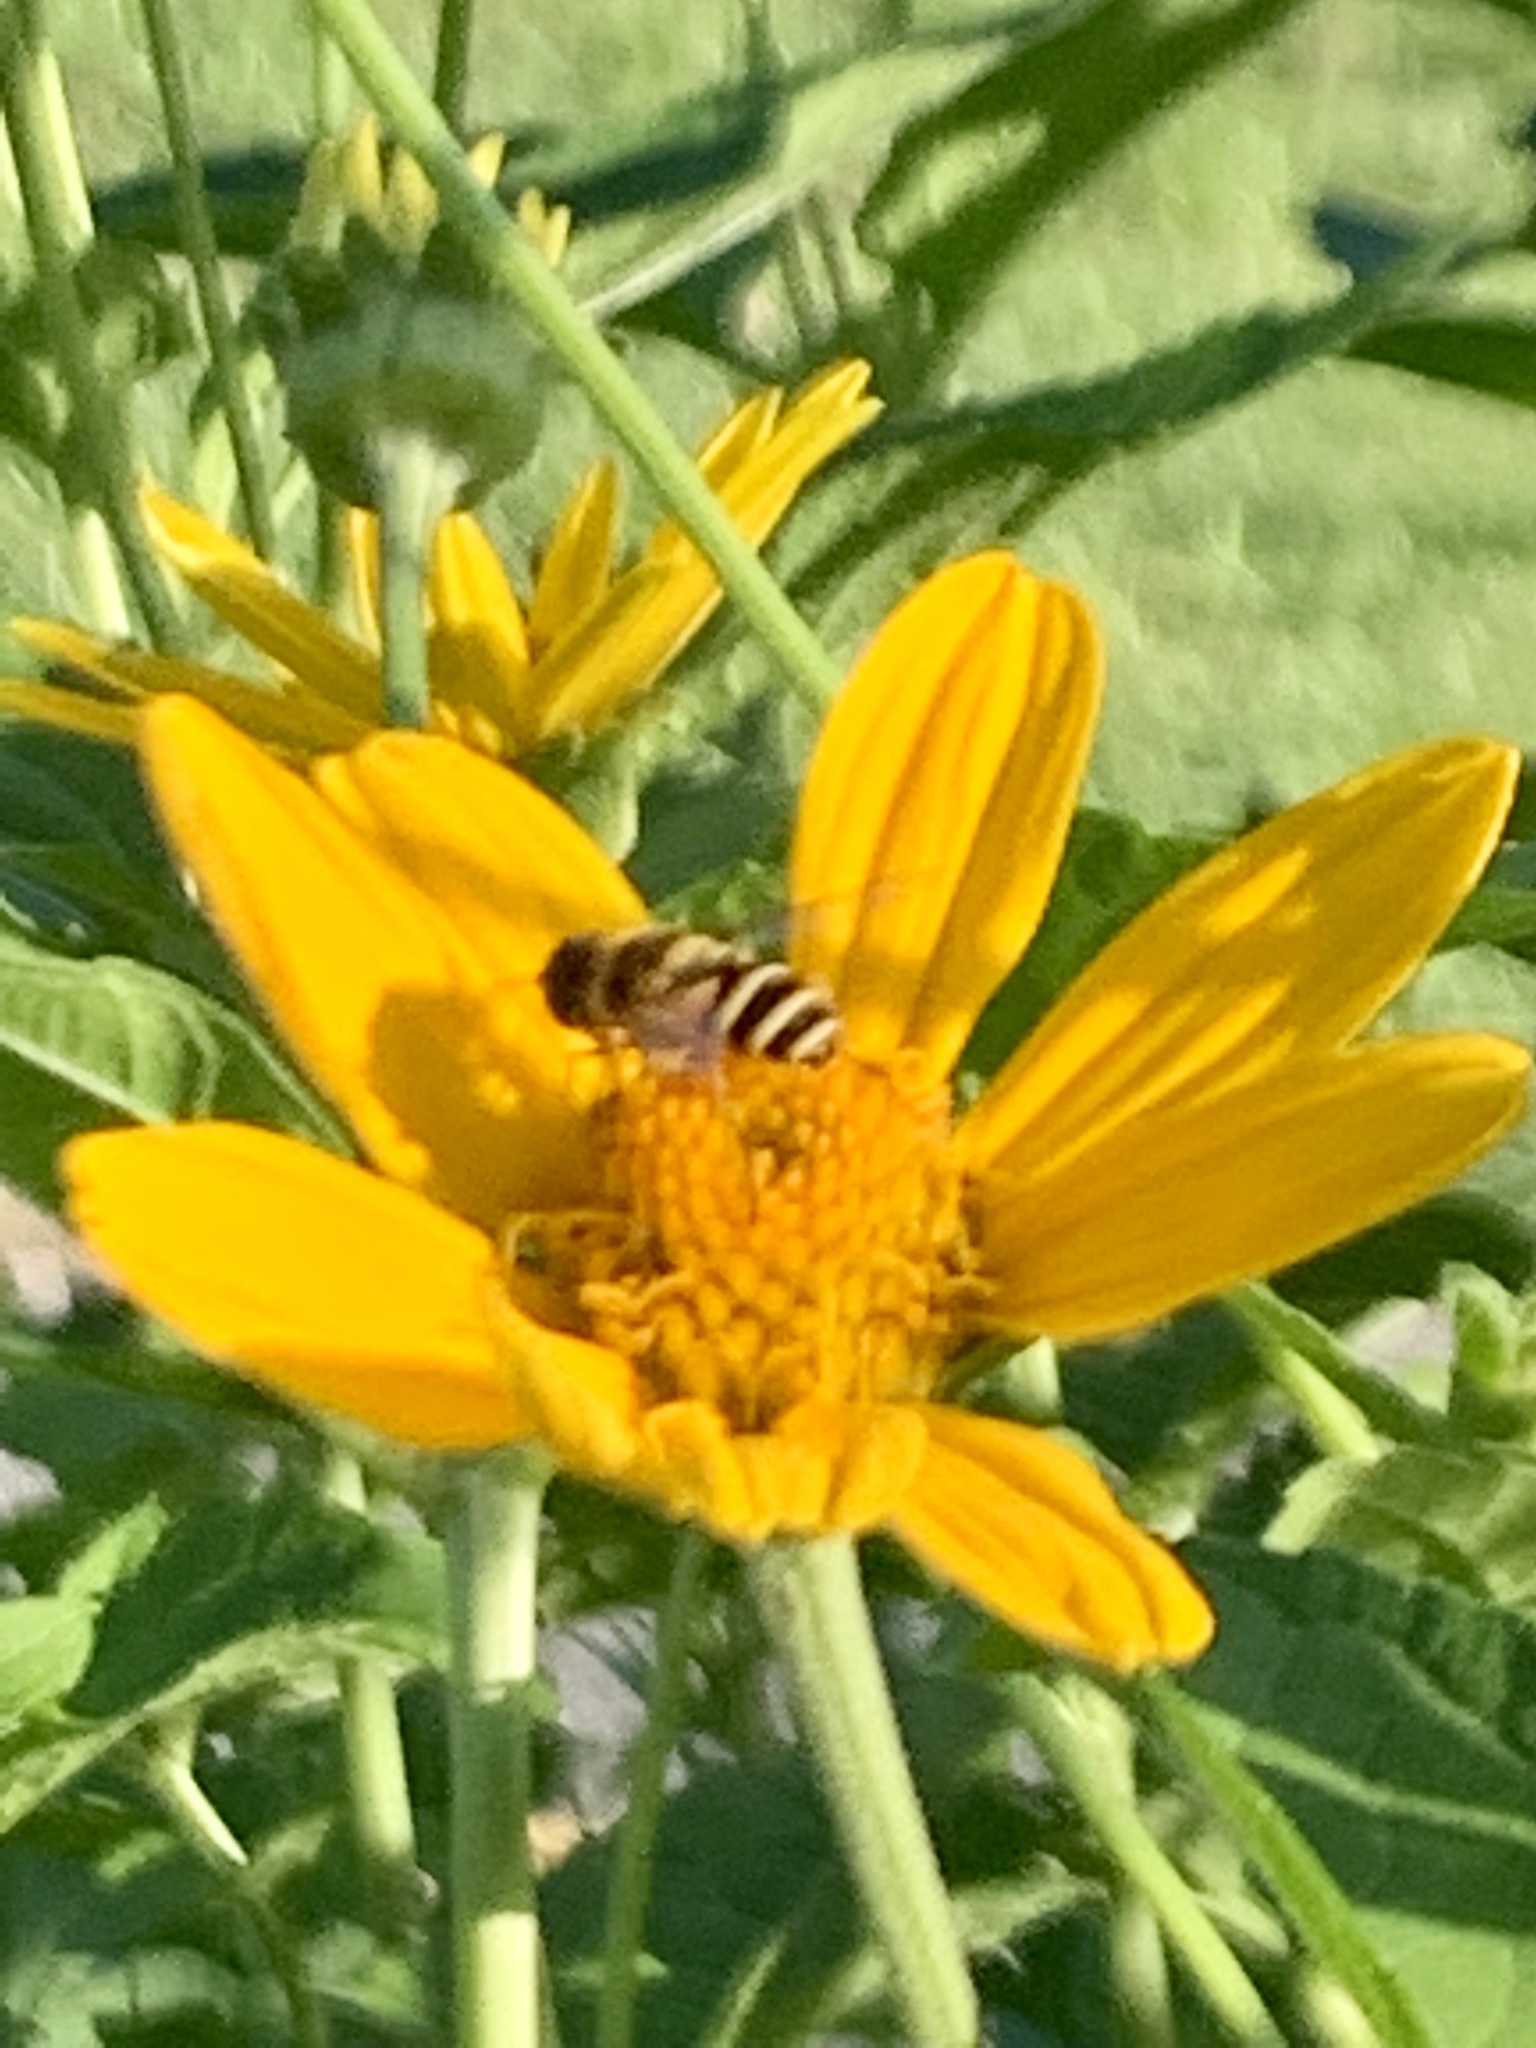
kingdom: Animalia
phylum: Arthropoda
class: Insecta
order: Diptera
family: Syrphidae
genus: Eristalis
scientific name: Eristalis transversa
